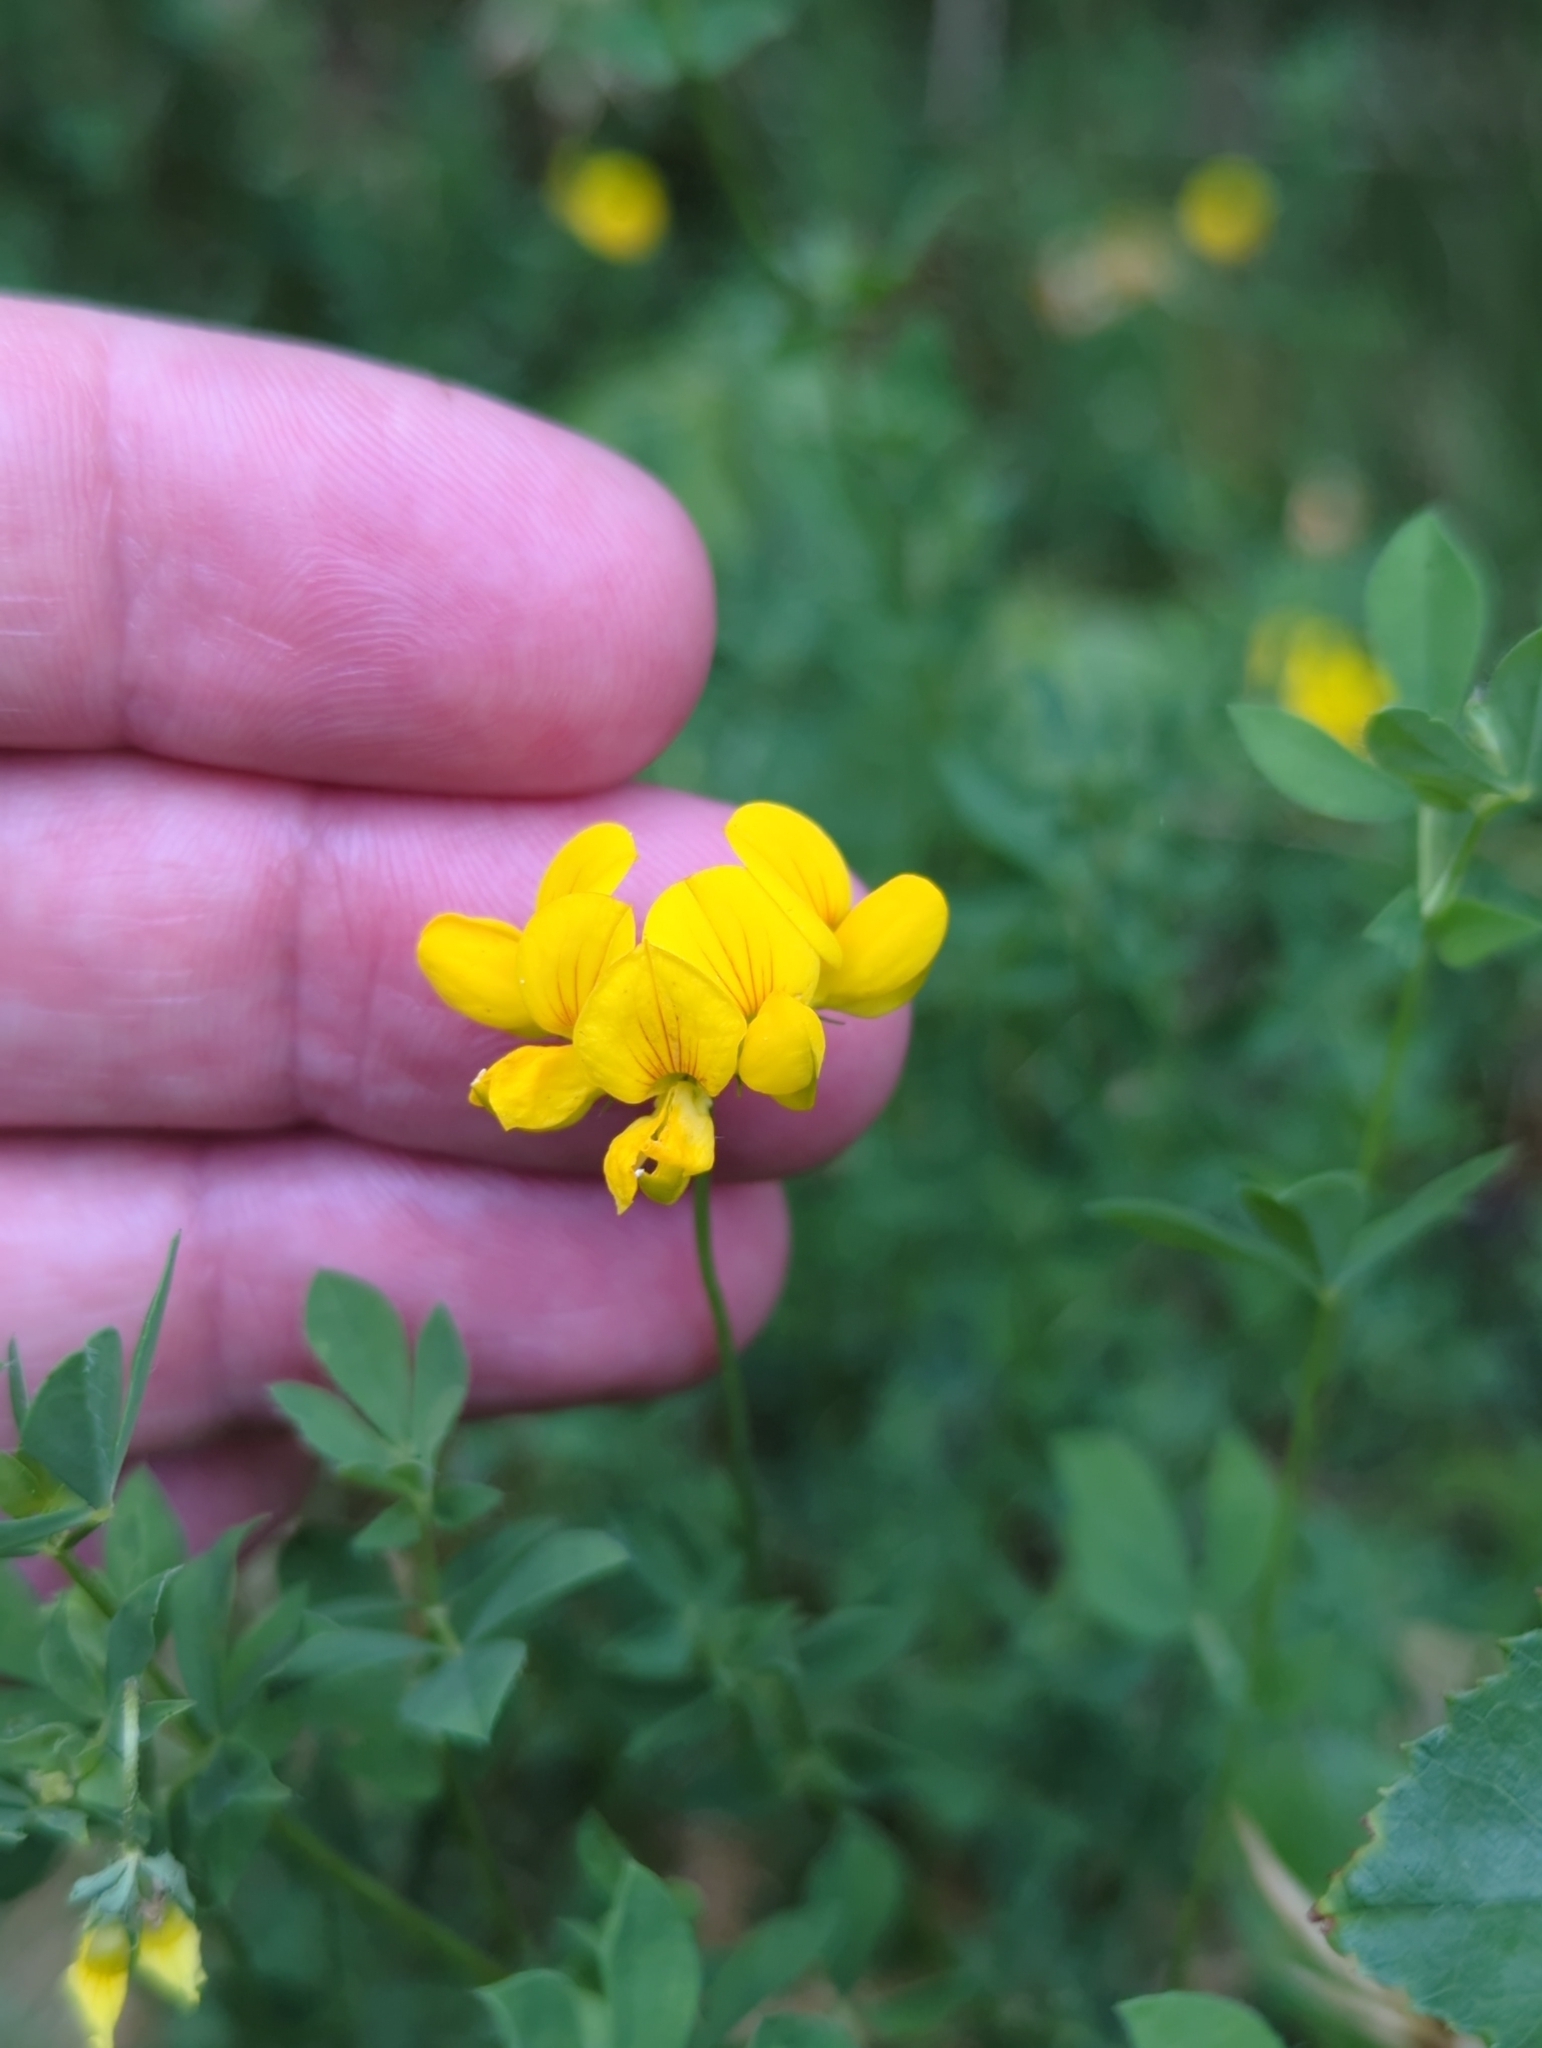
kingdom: Plantae
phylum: Tracheophyta
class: Magnoliopsida
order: Fabales
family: Fabaceae
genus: Lotus
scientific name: Lotus corniculatus
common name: Common bird's-foot-trefoil
